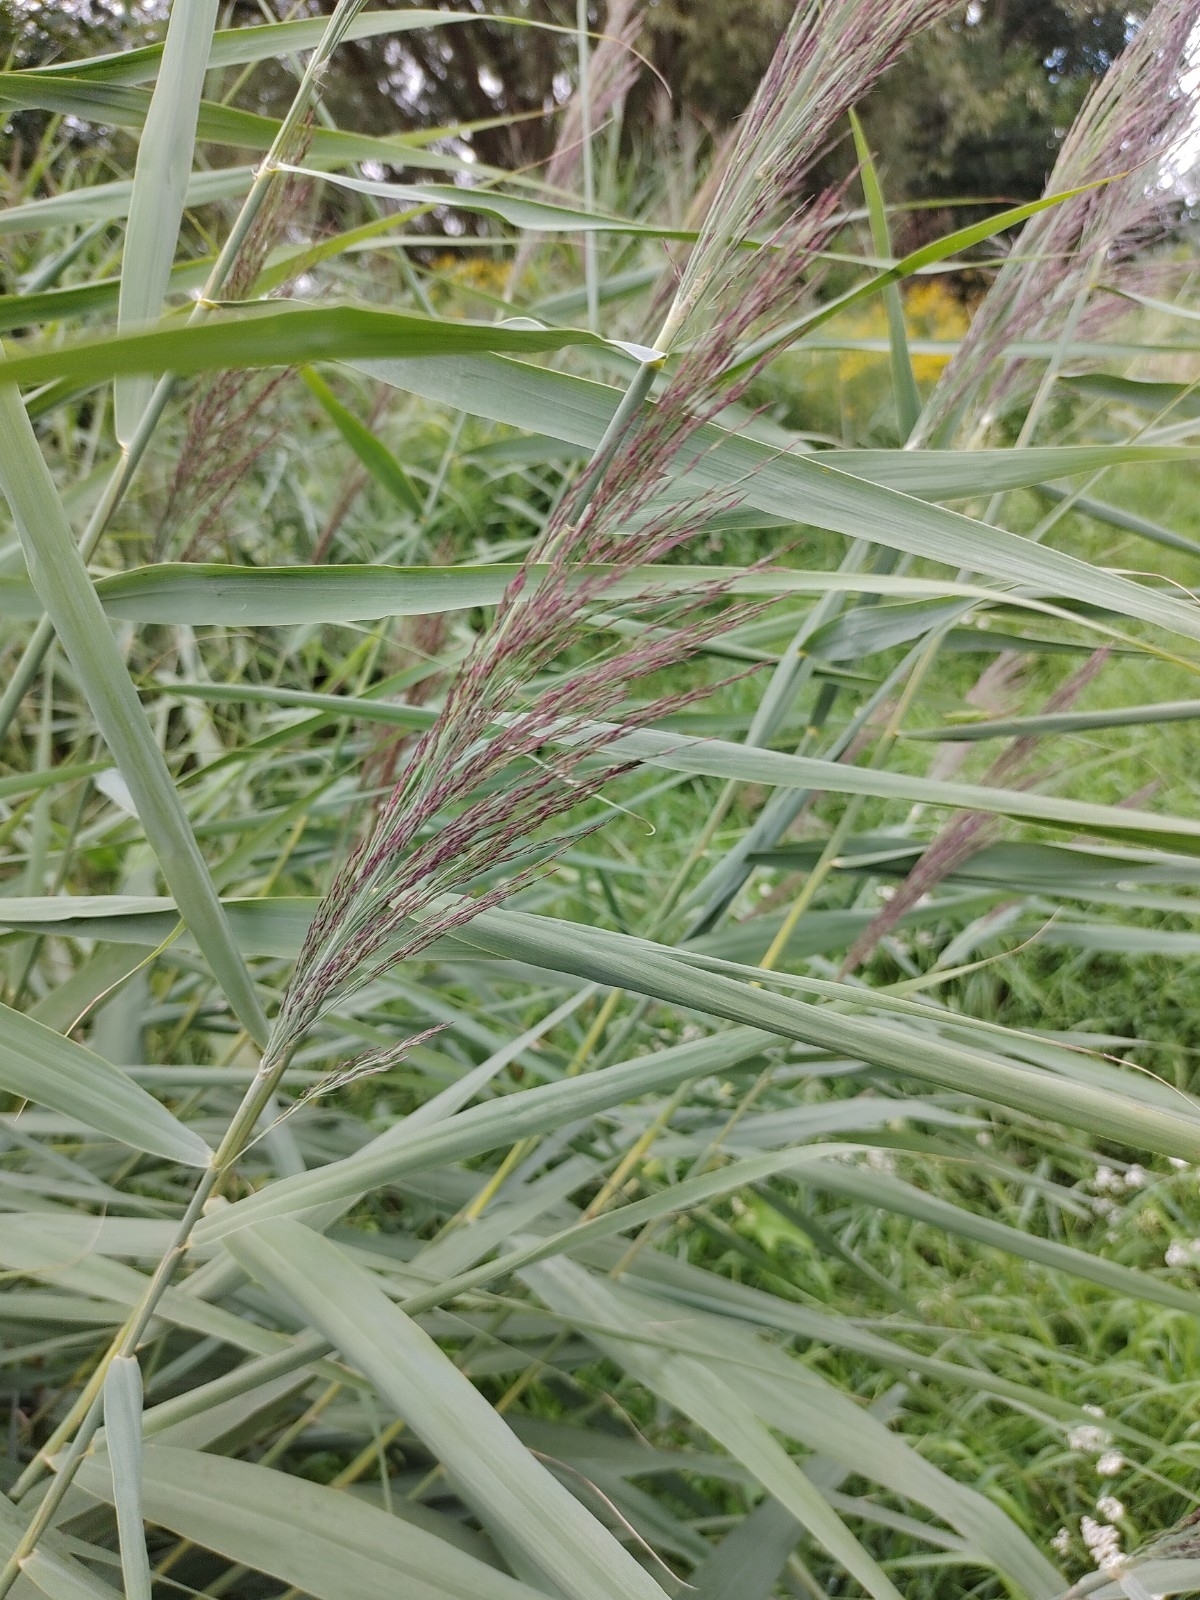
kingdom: Plantae
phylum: Tracheophyta
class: Liliopsida
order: Poales
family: Poaceae
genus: Phragmites
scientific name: Phragmites australis
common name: Common reed
